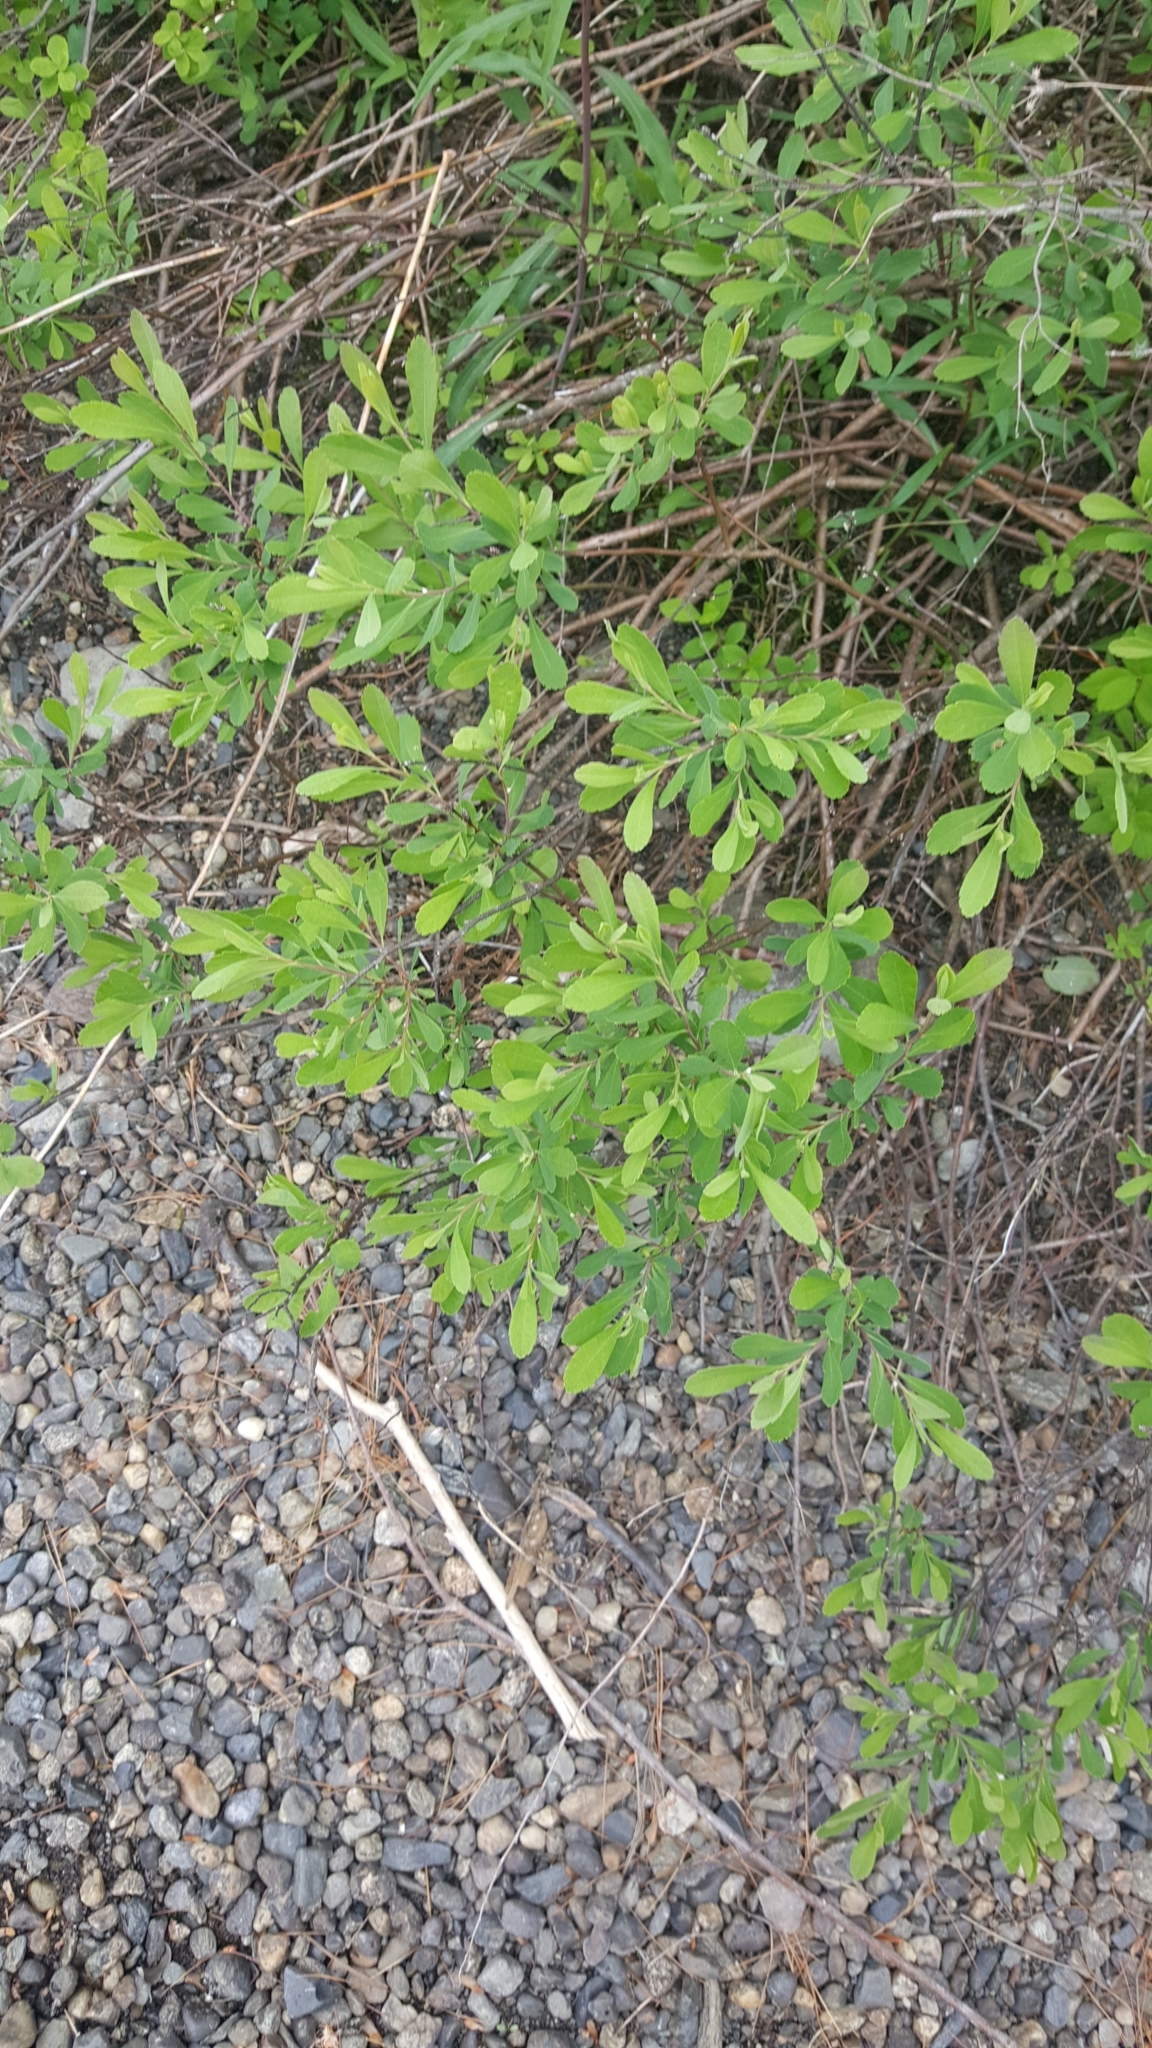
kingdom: Plantae
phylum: Tracheophyta
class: Magnoliopsida
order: Fagales
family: Myricaceae
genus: Myrica
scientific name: Myrica gale
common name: Sweet gale
